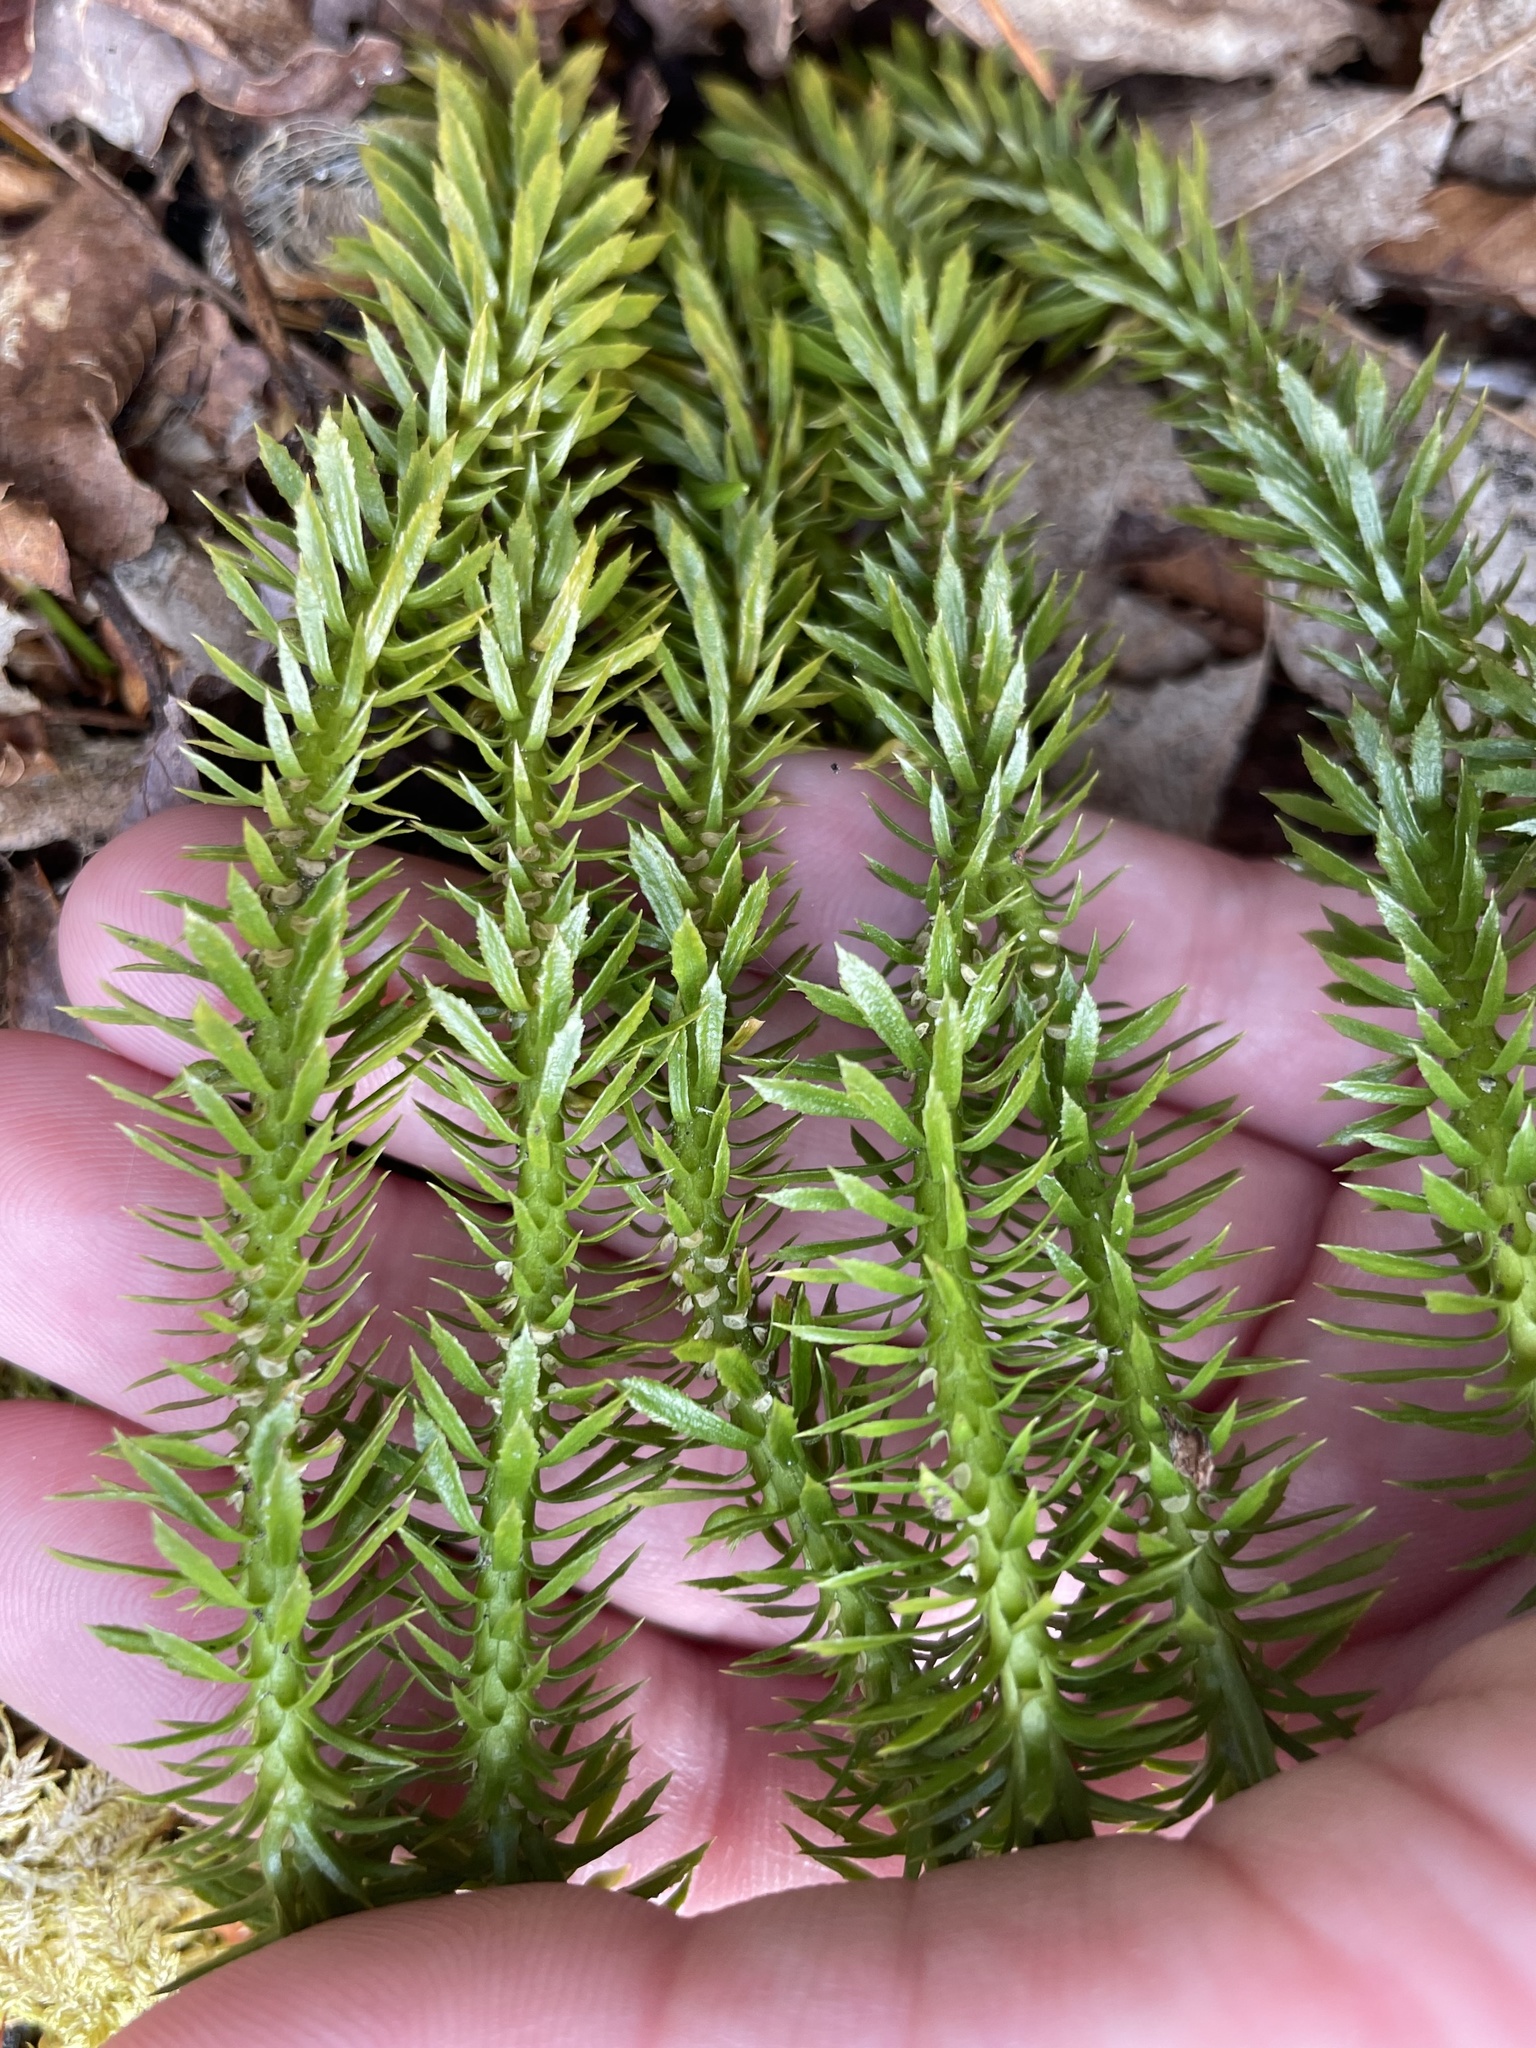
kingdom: Plantae
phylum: Tracheophyta
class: Lycopodiopsida
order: Lycopodiales
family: Lycopodiaceae
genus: Spinulum
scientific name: Spinulum annotinum
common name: Interrupted club-moss
